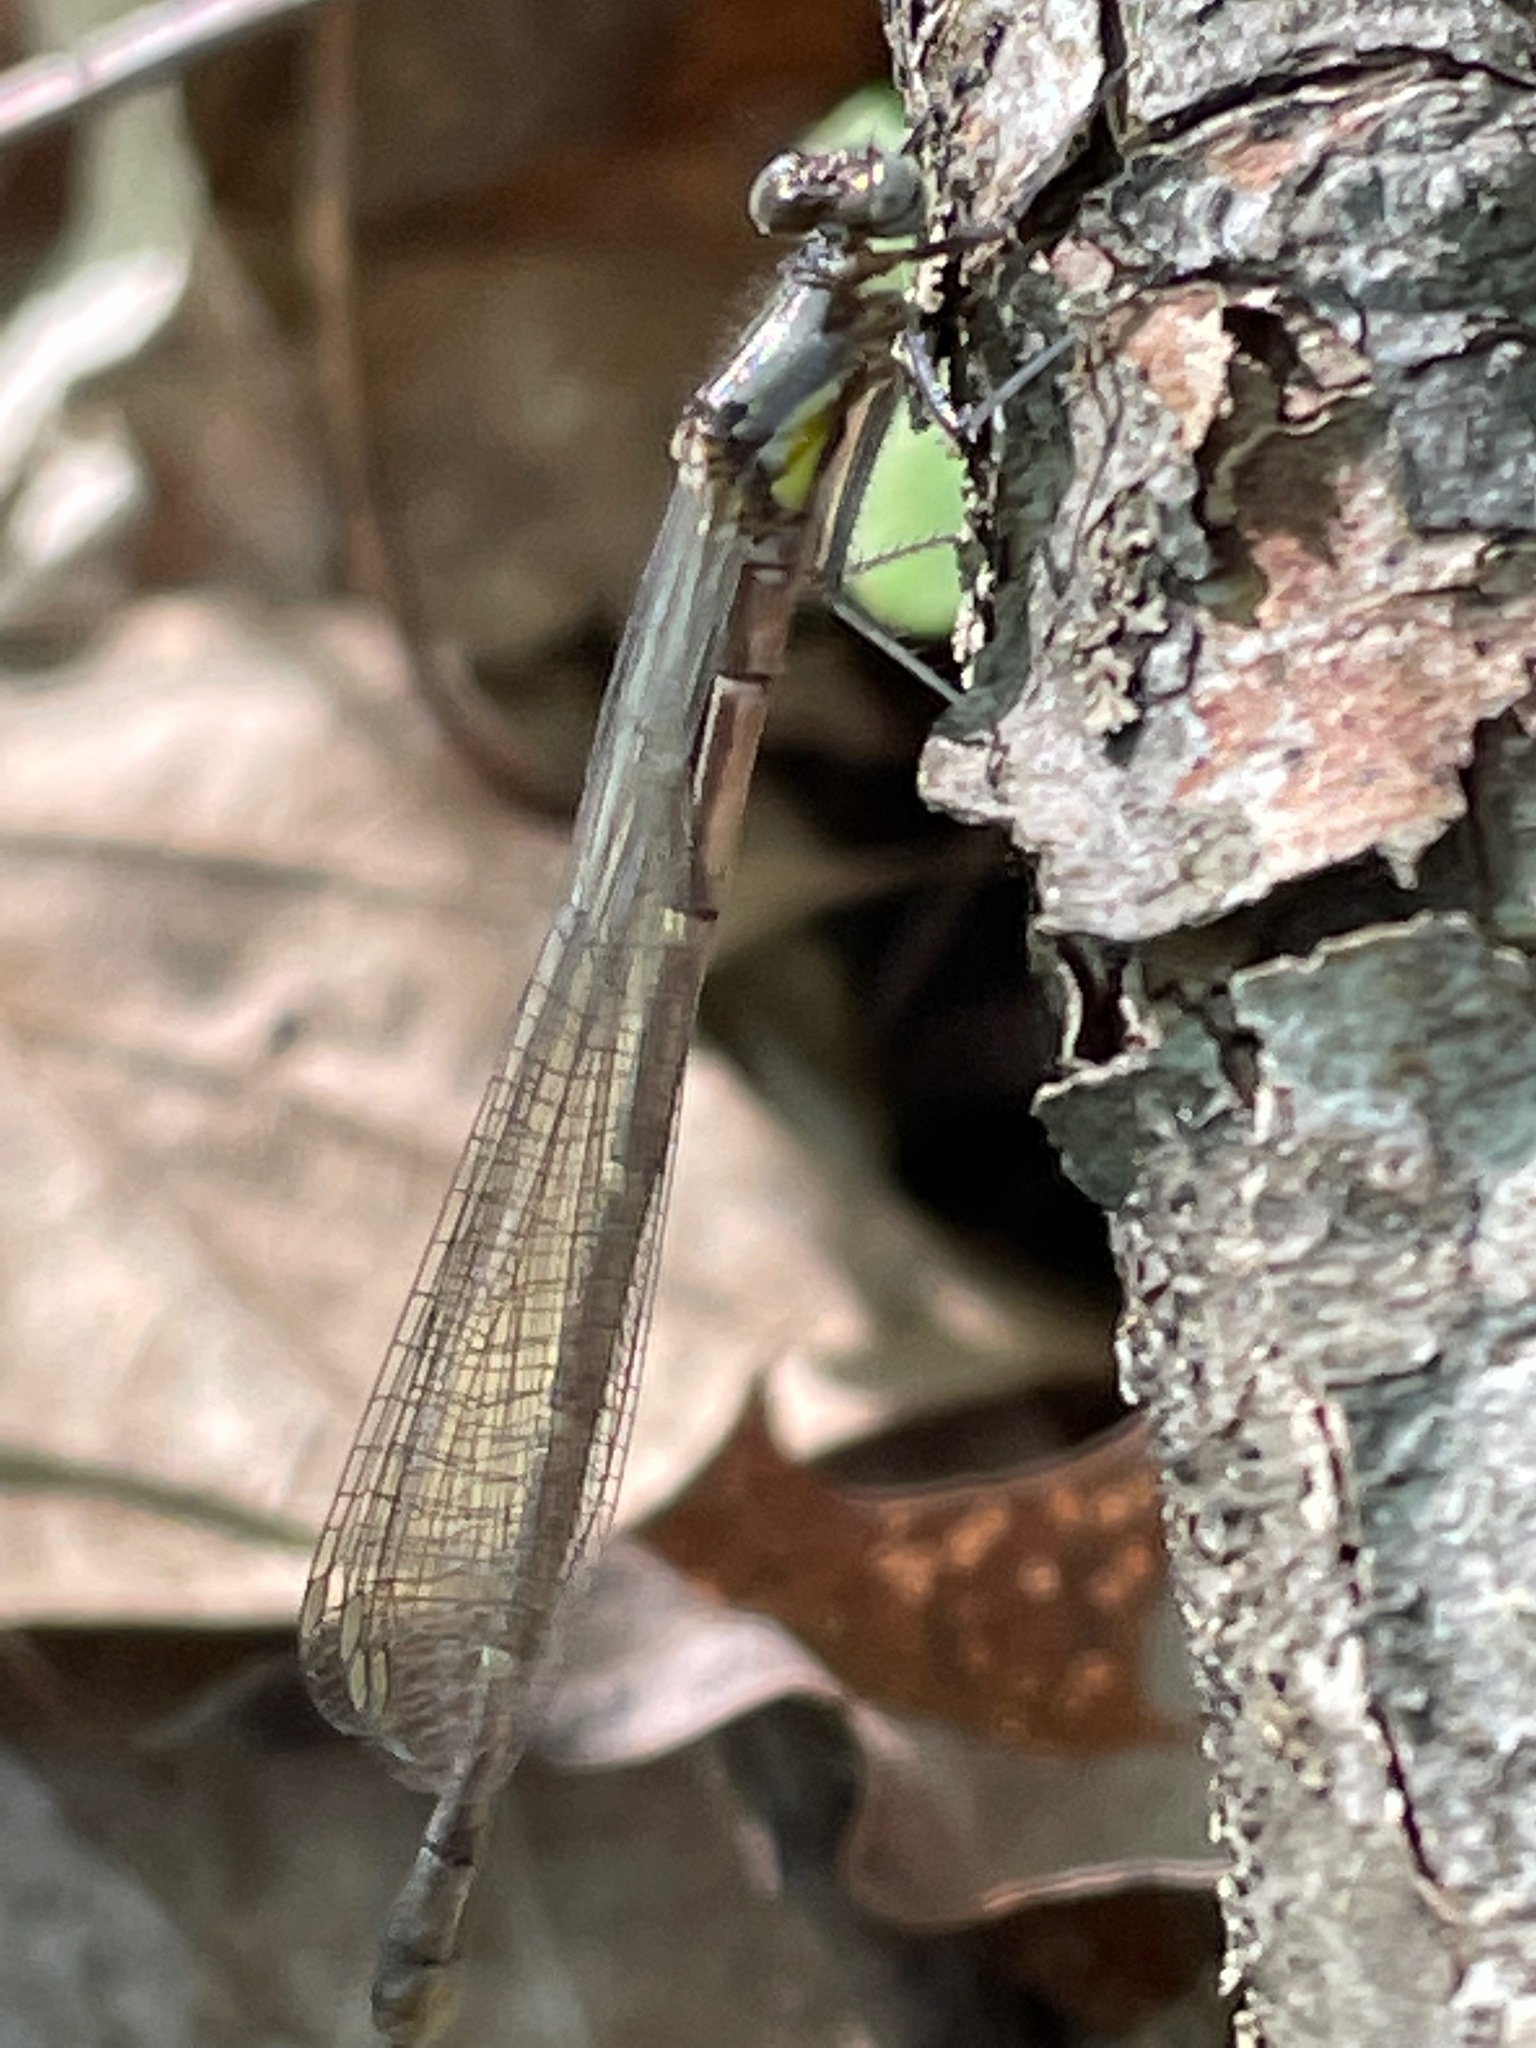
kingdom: Animalia
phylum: Arthropoda
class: Insecta
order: Odonata
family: Coenagrionidae
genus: Chromagrion
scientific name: Chromagrion conditum
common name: Aurora damsel
